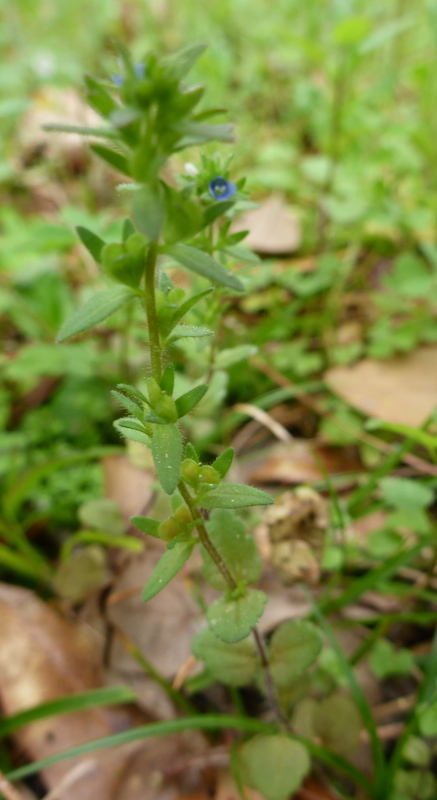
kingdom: Plantae
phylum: Tracheophyta
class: Magnoliopsida
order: Lamiales
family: Plantaginaceae
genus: Veronica
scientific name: Veronica arvensis
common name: Corn speedwell
